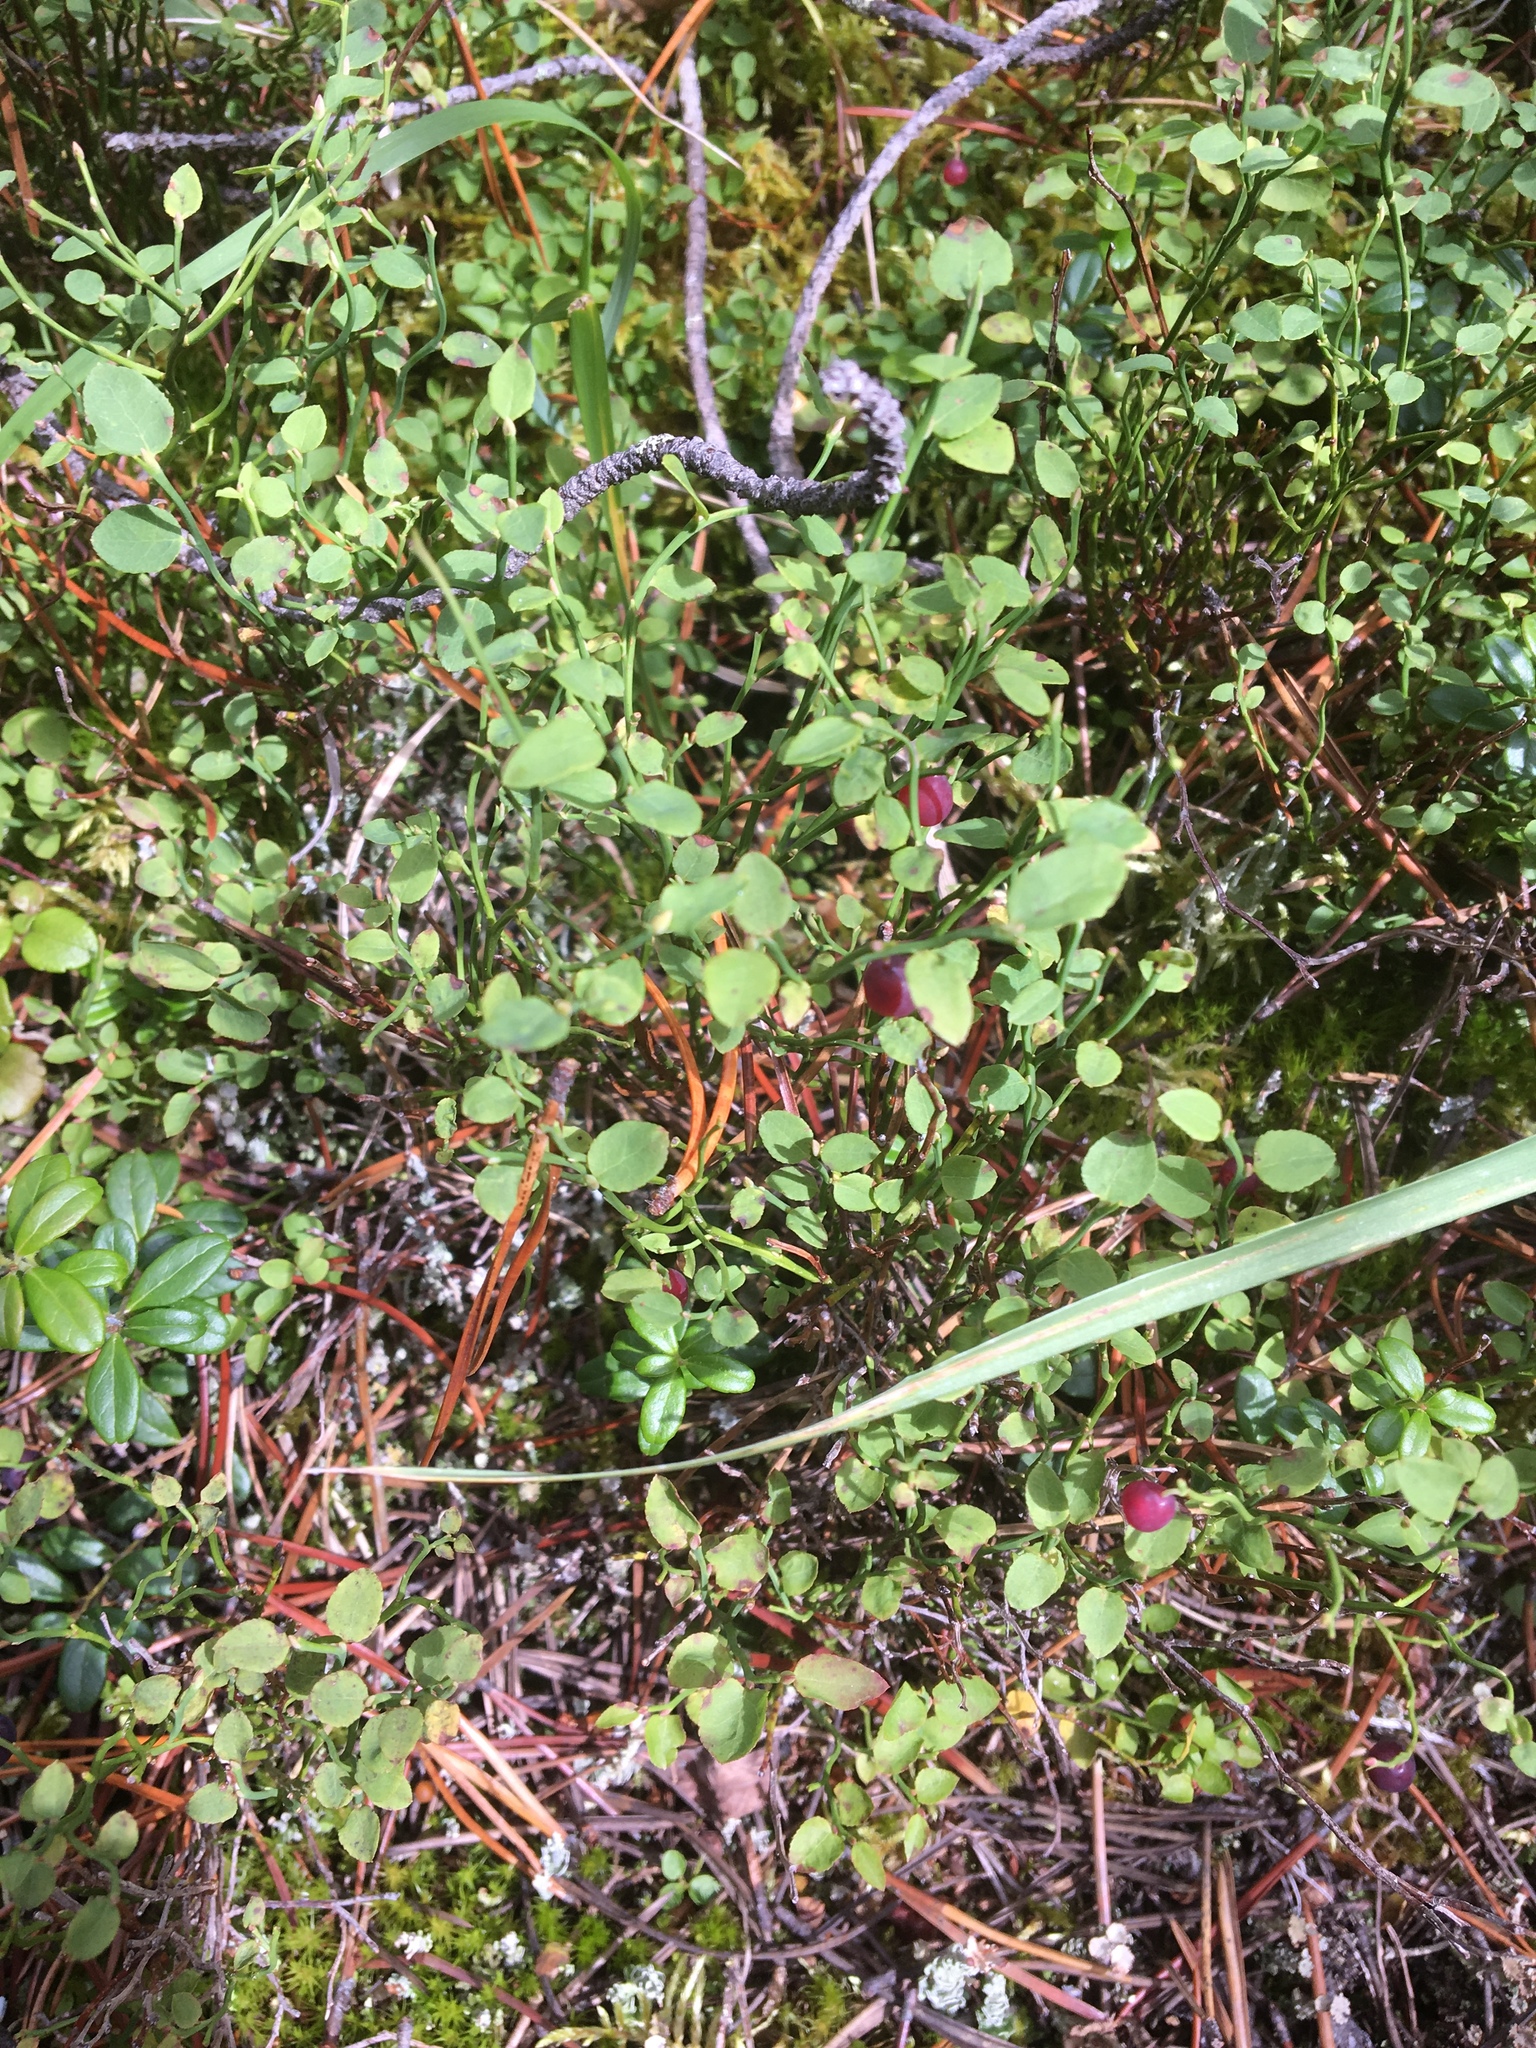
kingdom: Plantae
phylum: Tracheophyta
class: Magnoliopsida
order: Ericales
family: Ericaceae
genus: Vaccinium
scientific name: Vaccinium scoparium
